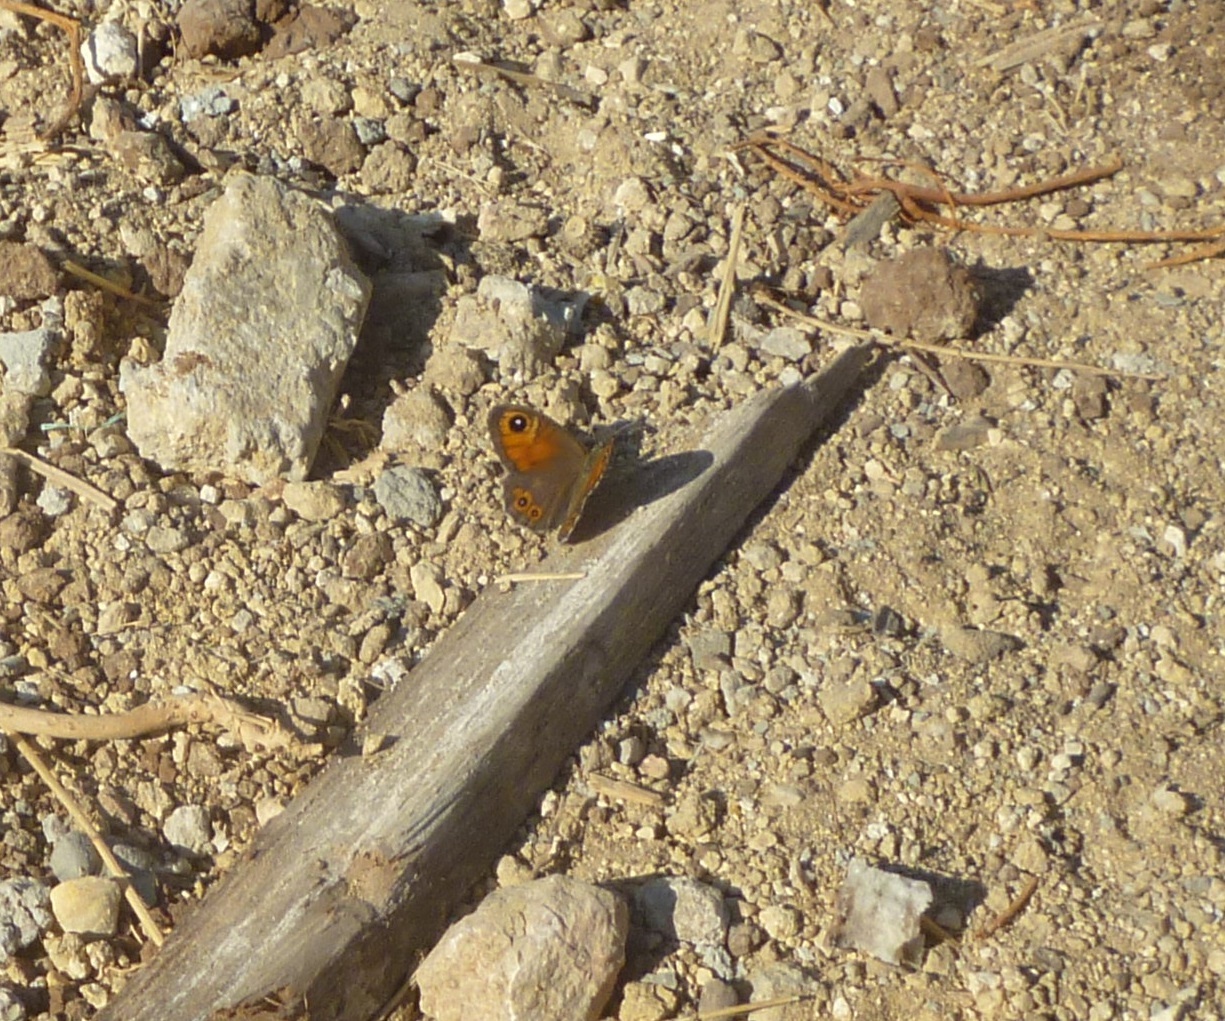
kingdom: Animalia
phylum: Arthropoda
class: Insecta
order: Lepidoptera
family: Nymphalidae
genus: Pararge
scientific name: Pararge Lasiommata maera
